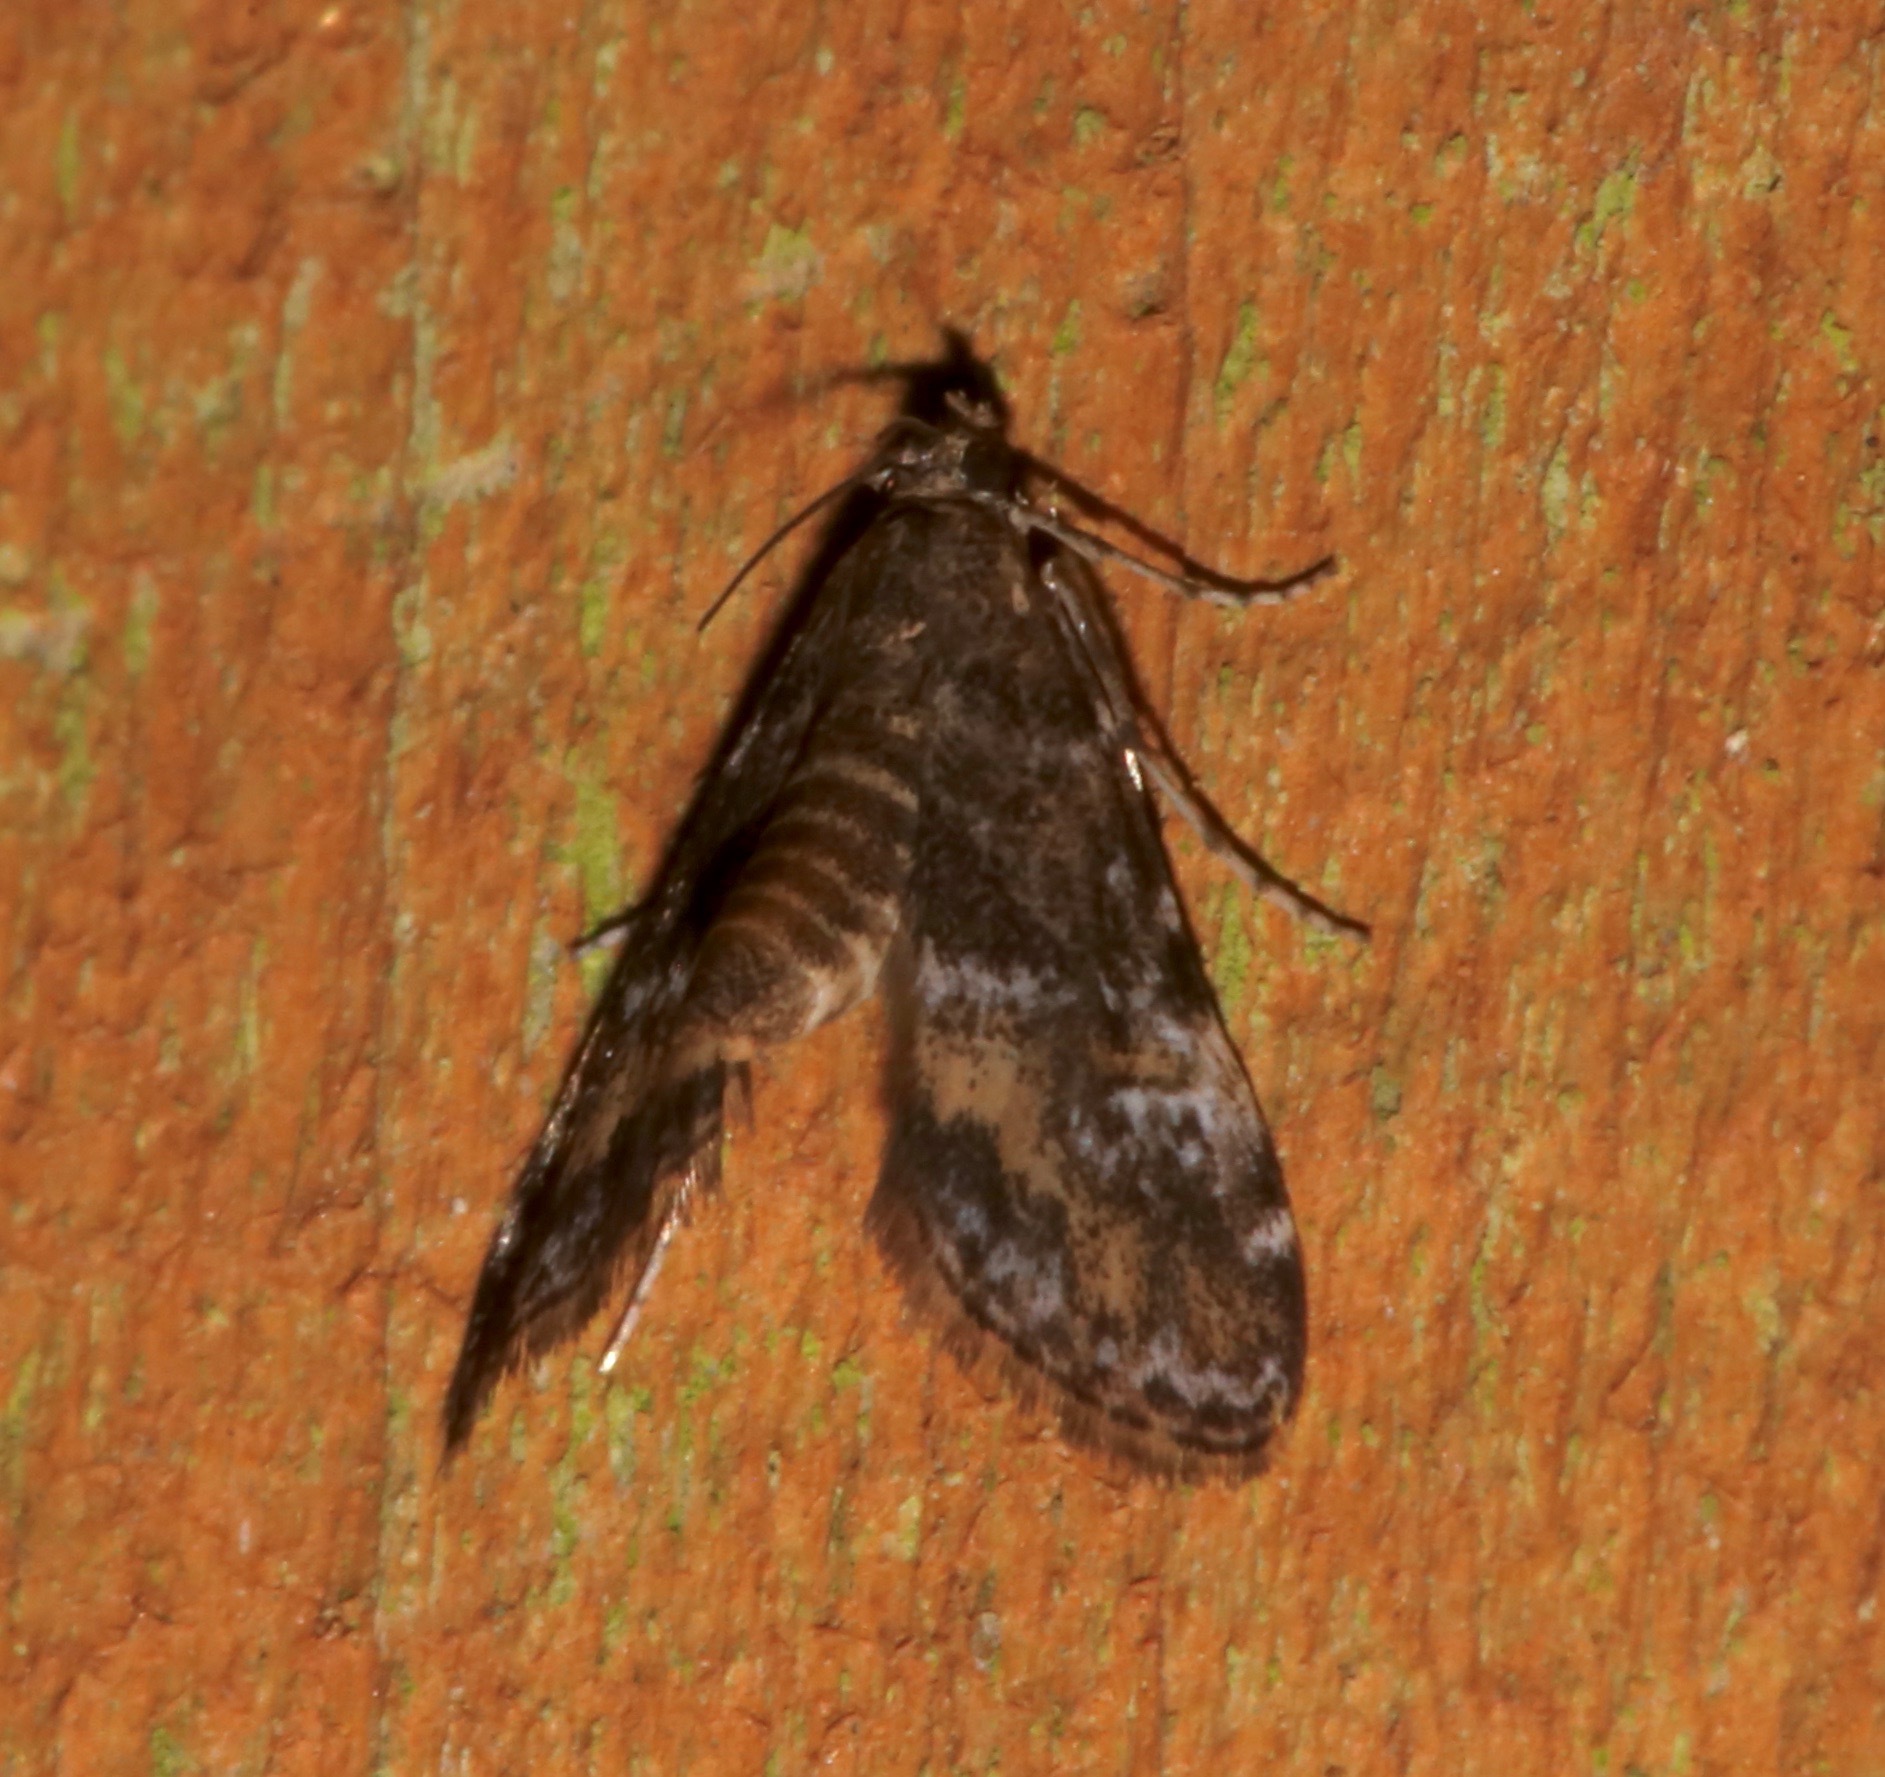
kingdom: Animalia
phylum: Arthropoda
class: Insecta
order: Lepidoptera
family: Crambidae
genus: Elophila
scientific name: Elophila obliteralis
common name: Waterlily leafcutter moth
